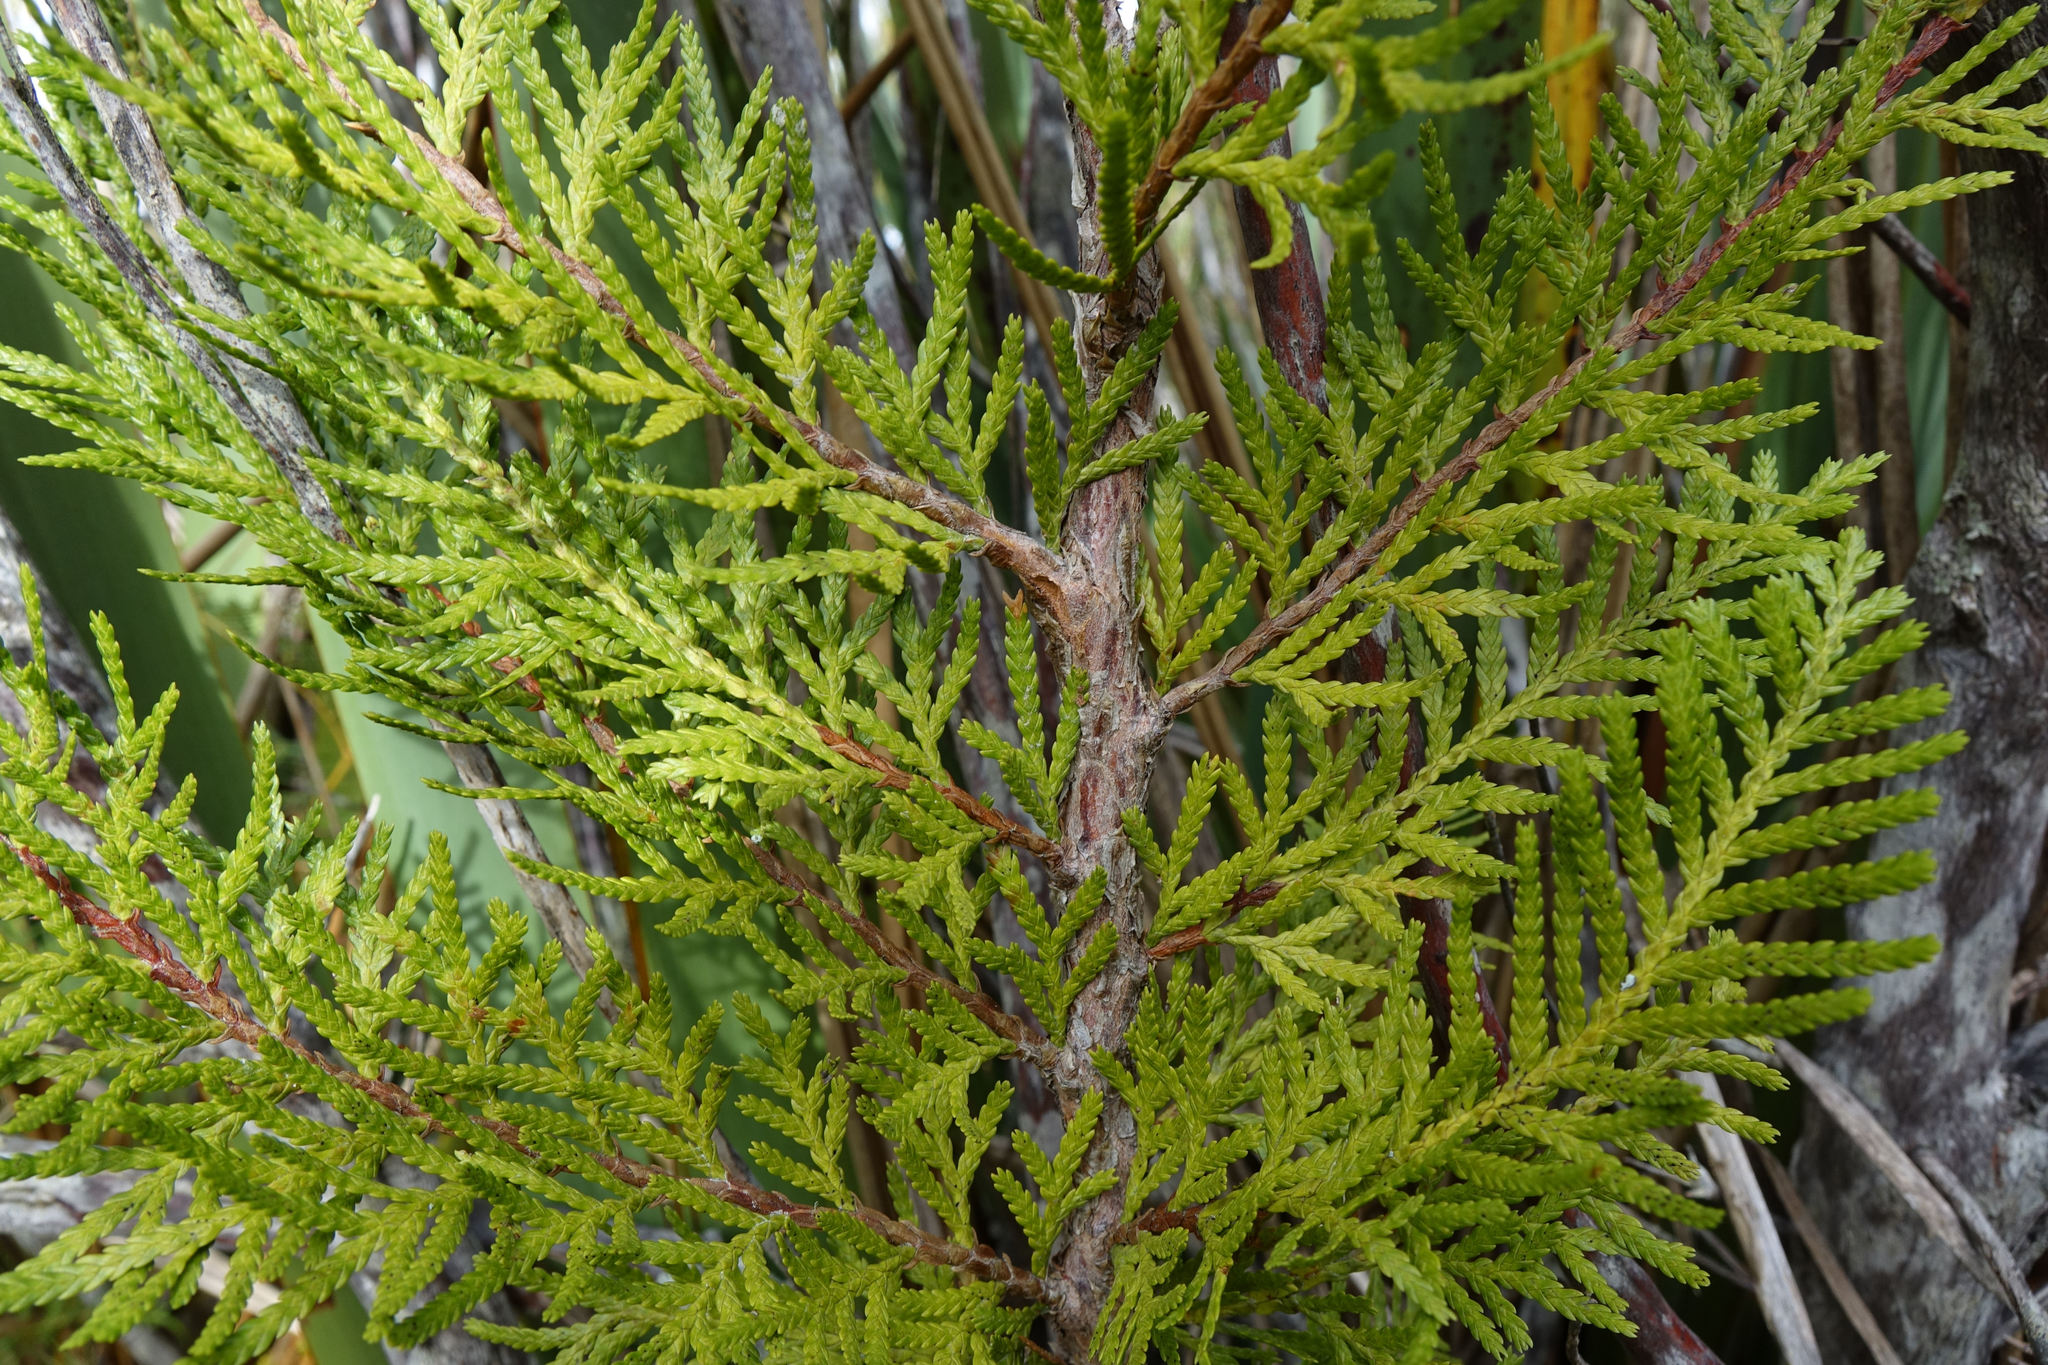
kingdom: Plantae
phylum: Tracheophyta
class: Pinopsida
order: Pinales
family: Cupressaceae
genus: Libocedrus
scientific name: Libocedrus bidwillii
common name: Cedar
